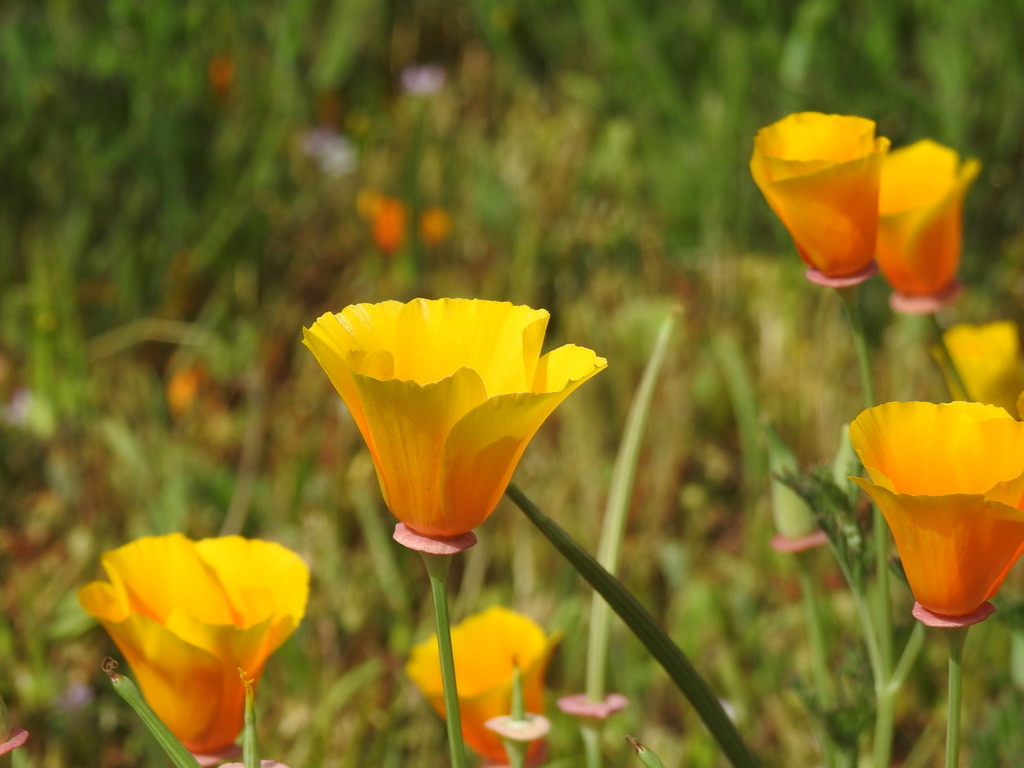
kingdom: Plantae
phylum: Tracheophyta
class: Magnoliopsida
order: Ranunculales
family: Papaveraceae
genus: Eschscholzia
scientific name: Eschscholzia californica
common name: California poppy
